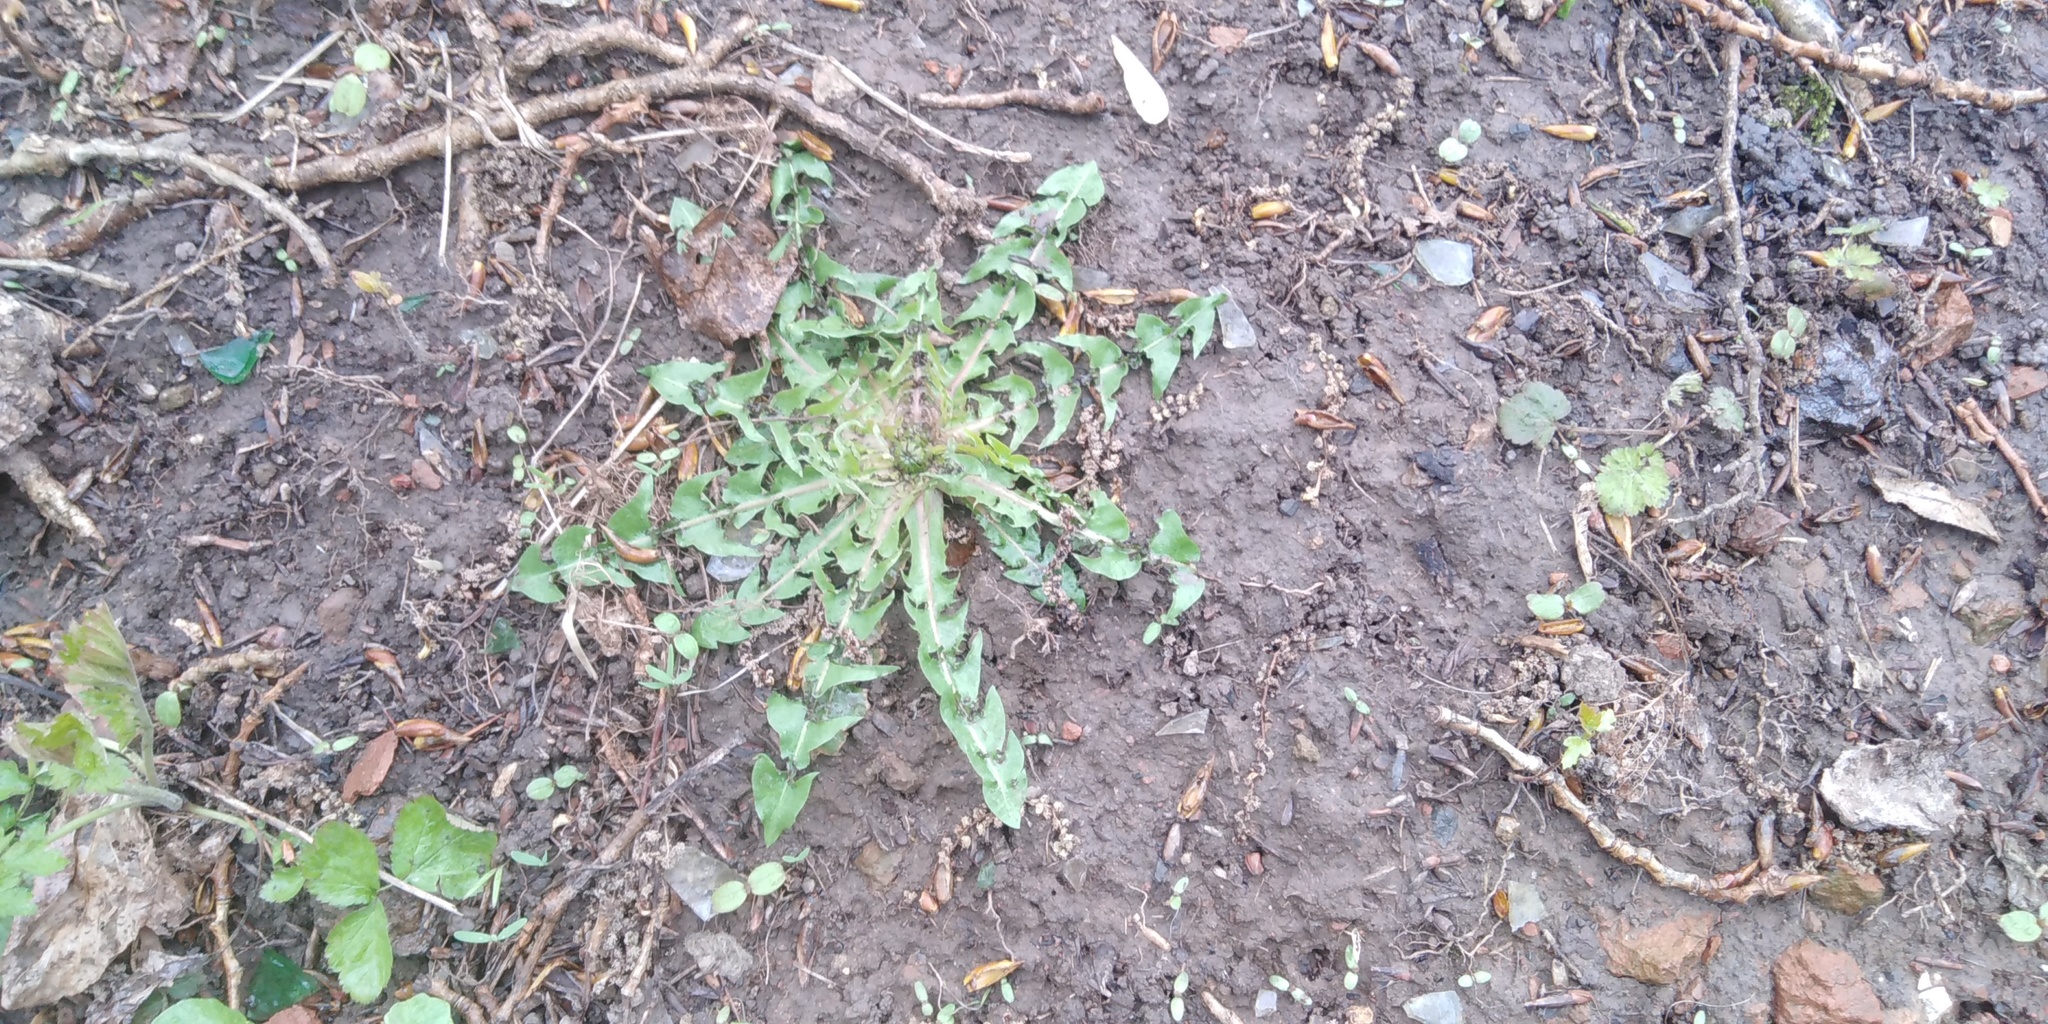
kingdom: Plantae
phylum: Tracheophyta
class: Magnoliopsida
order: Asterales
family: Asteraceae
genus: Taraxacum
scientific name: Taraxacum officinale
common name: Common dandelion
